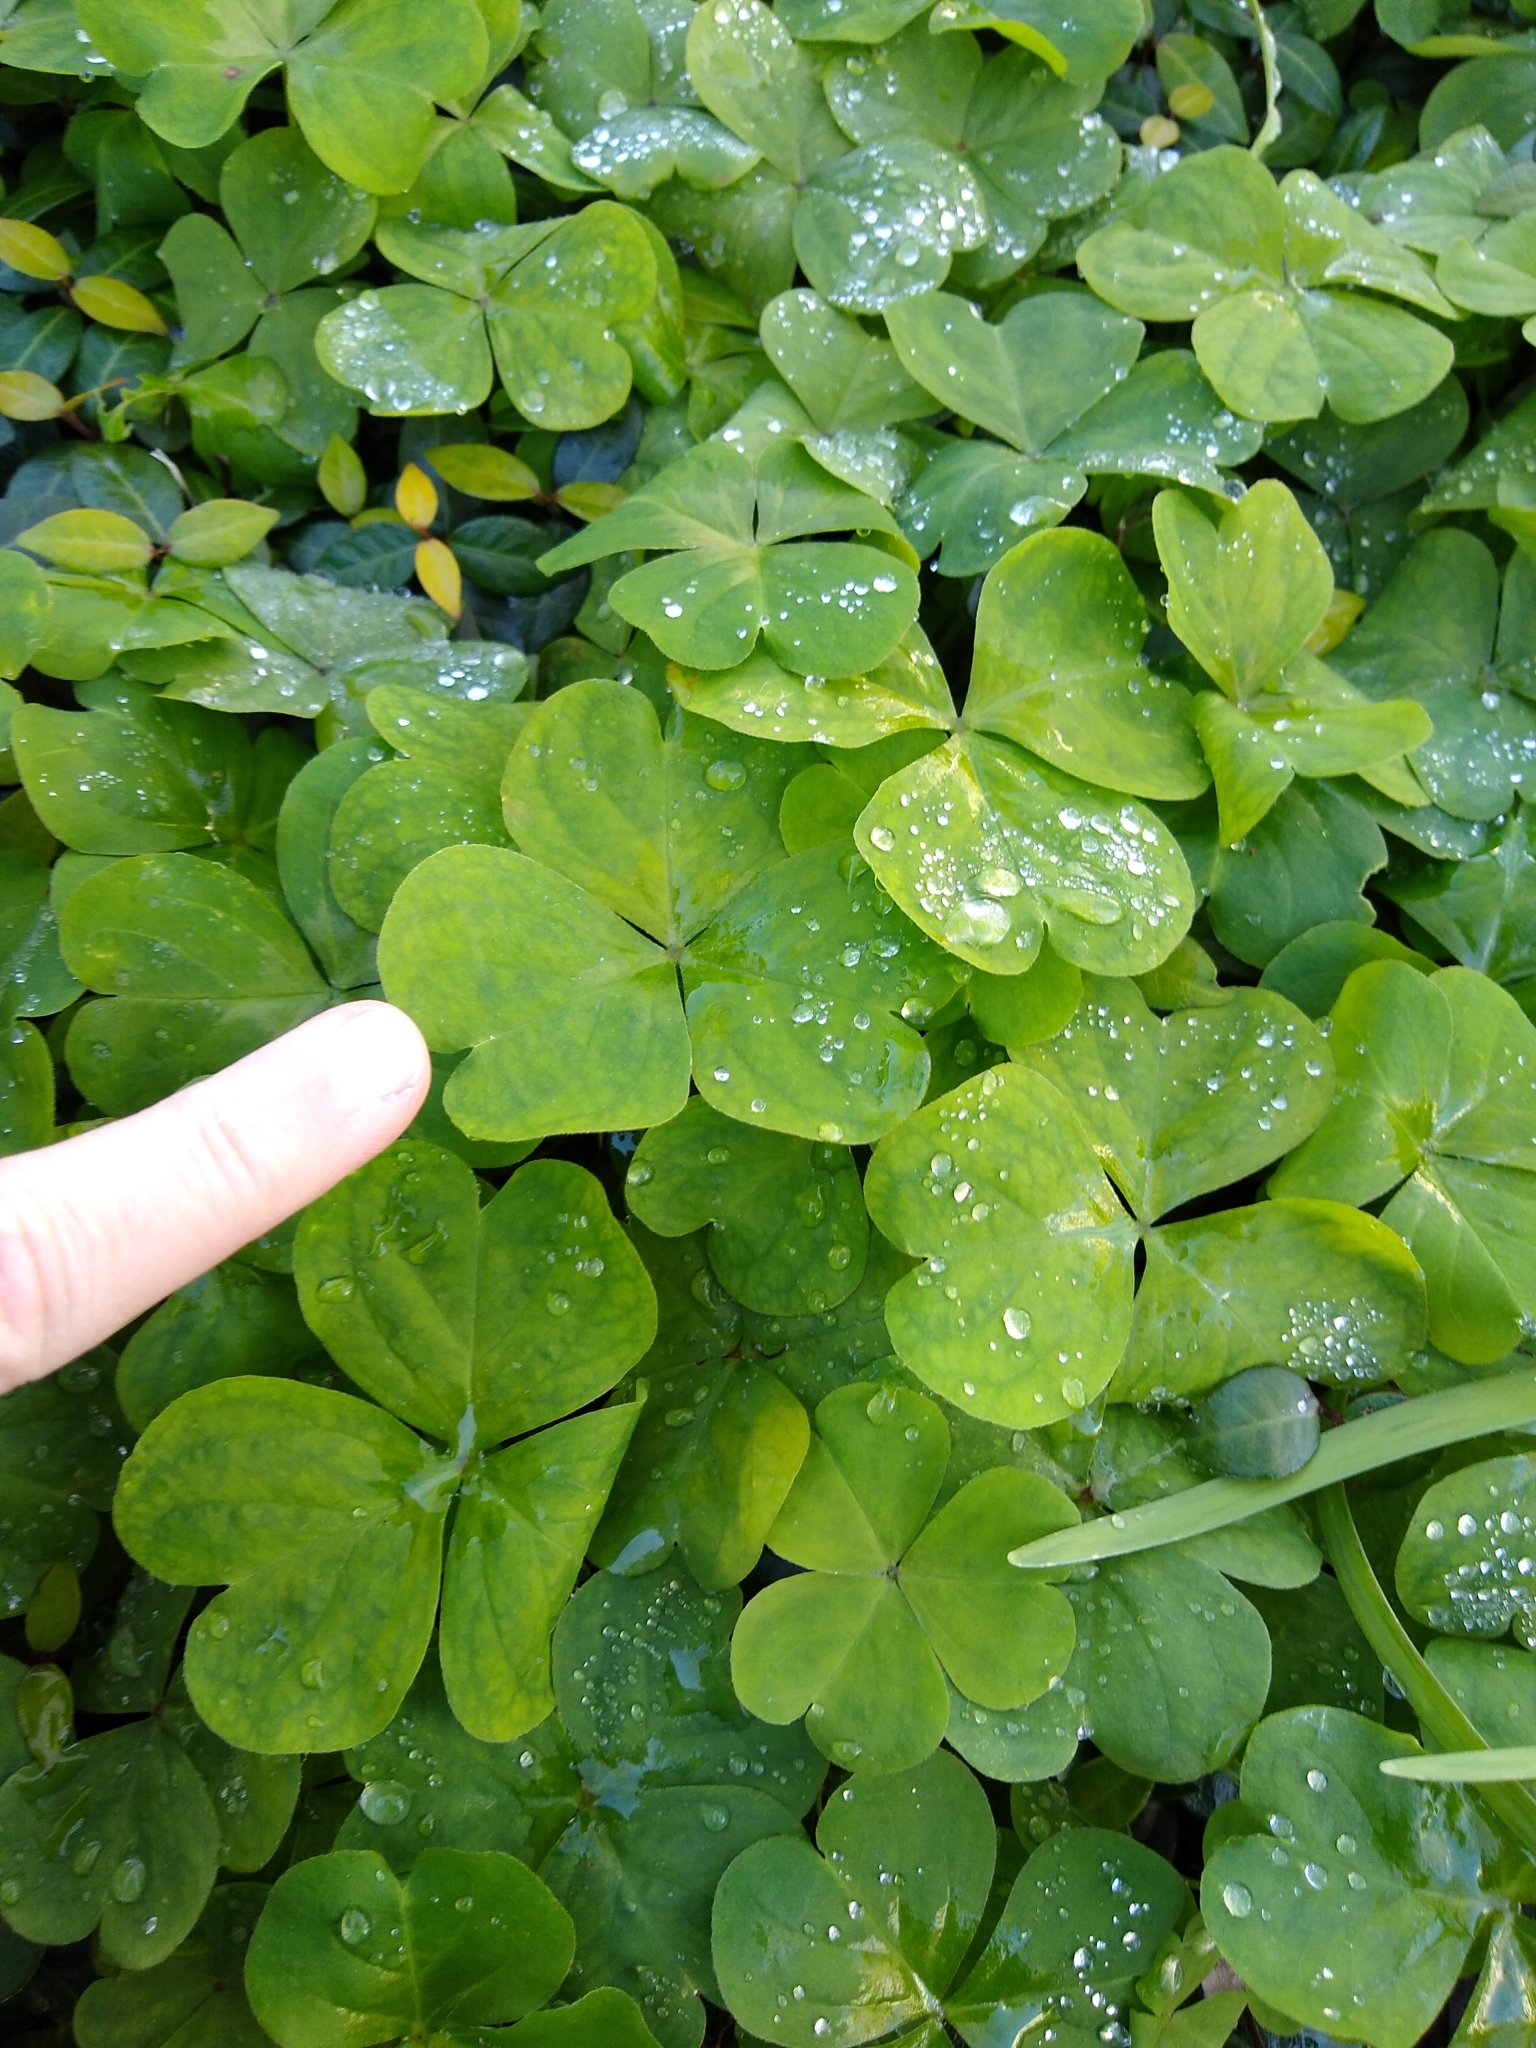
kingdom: Plantae
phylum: Tracheophyta
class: Magnoliopsida
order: Oxalidales
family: Oxalidaceae
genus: Oxalis
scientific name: Oxalis debilis
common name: Large-flowered pink-sorrel
